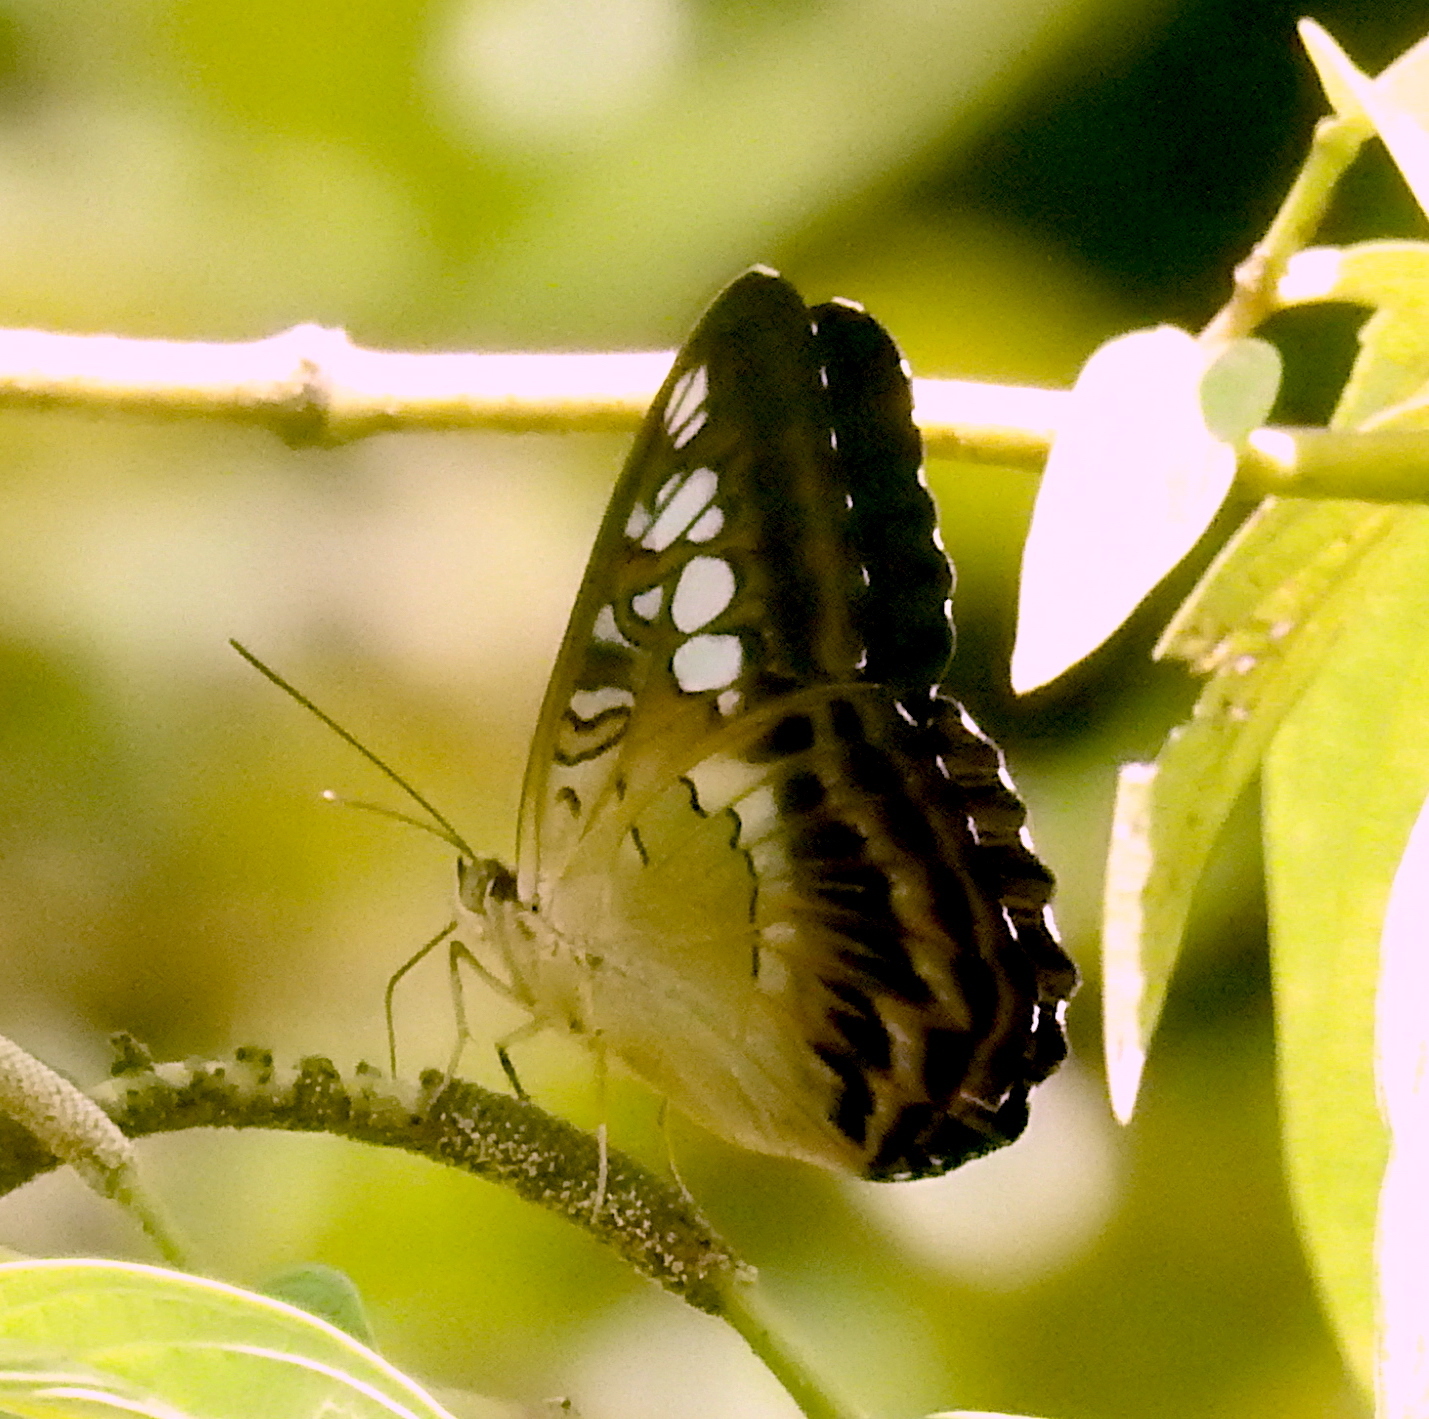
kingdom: Animalia
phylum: Arthropoda
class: Insecta
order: Lepidoptera
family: Nymphalidae
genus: Kallima
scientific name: Kallima sylvia
